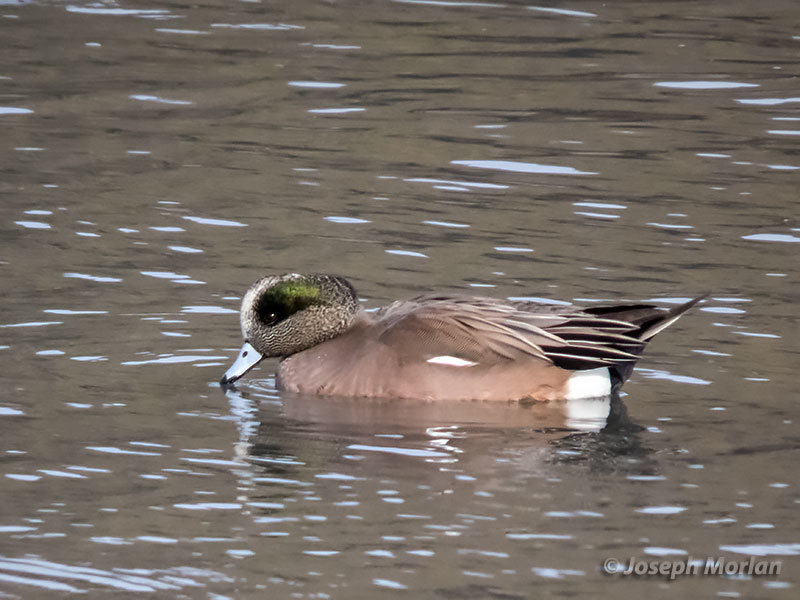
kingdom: Animalia
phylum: Chordata
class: Aves
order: Anseriformes
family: Anatidae
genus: Mareca
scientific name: Mareca americana
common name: American wigeon
